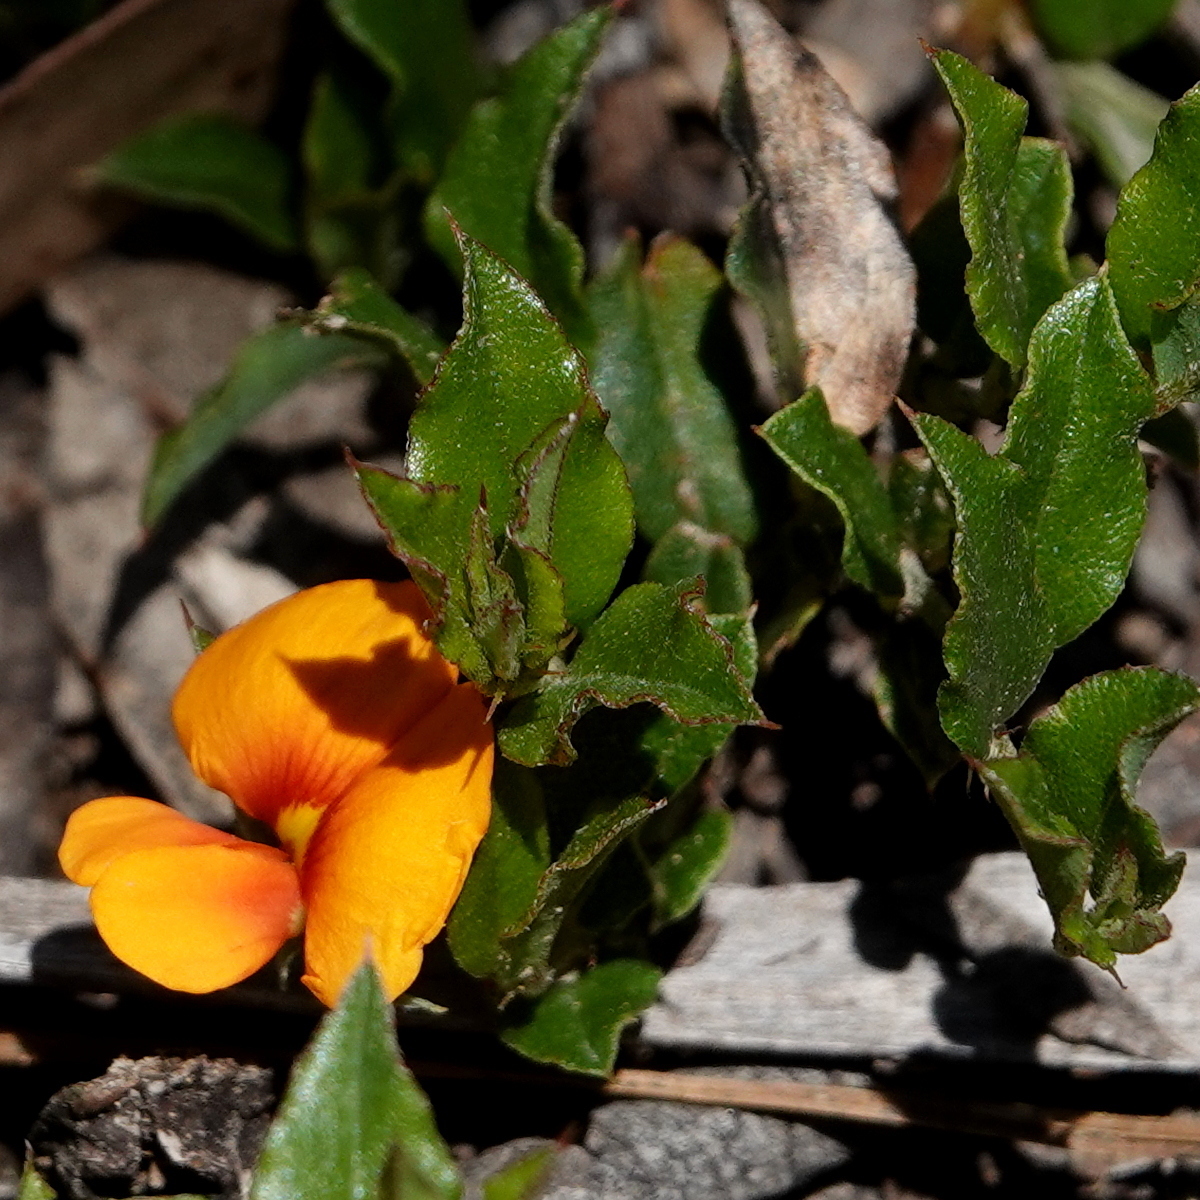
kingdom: Plantae
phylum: Tracheophyta
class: Magnoliopsida
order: Fabales
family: Fabaceae
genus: Podolobium
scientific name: Podolobium procumbens
